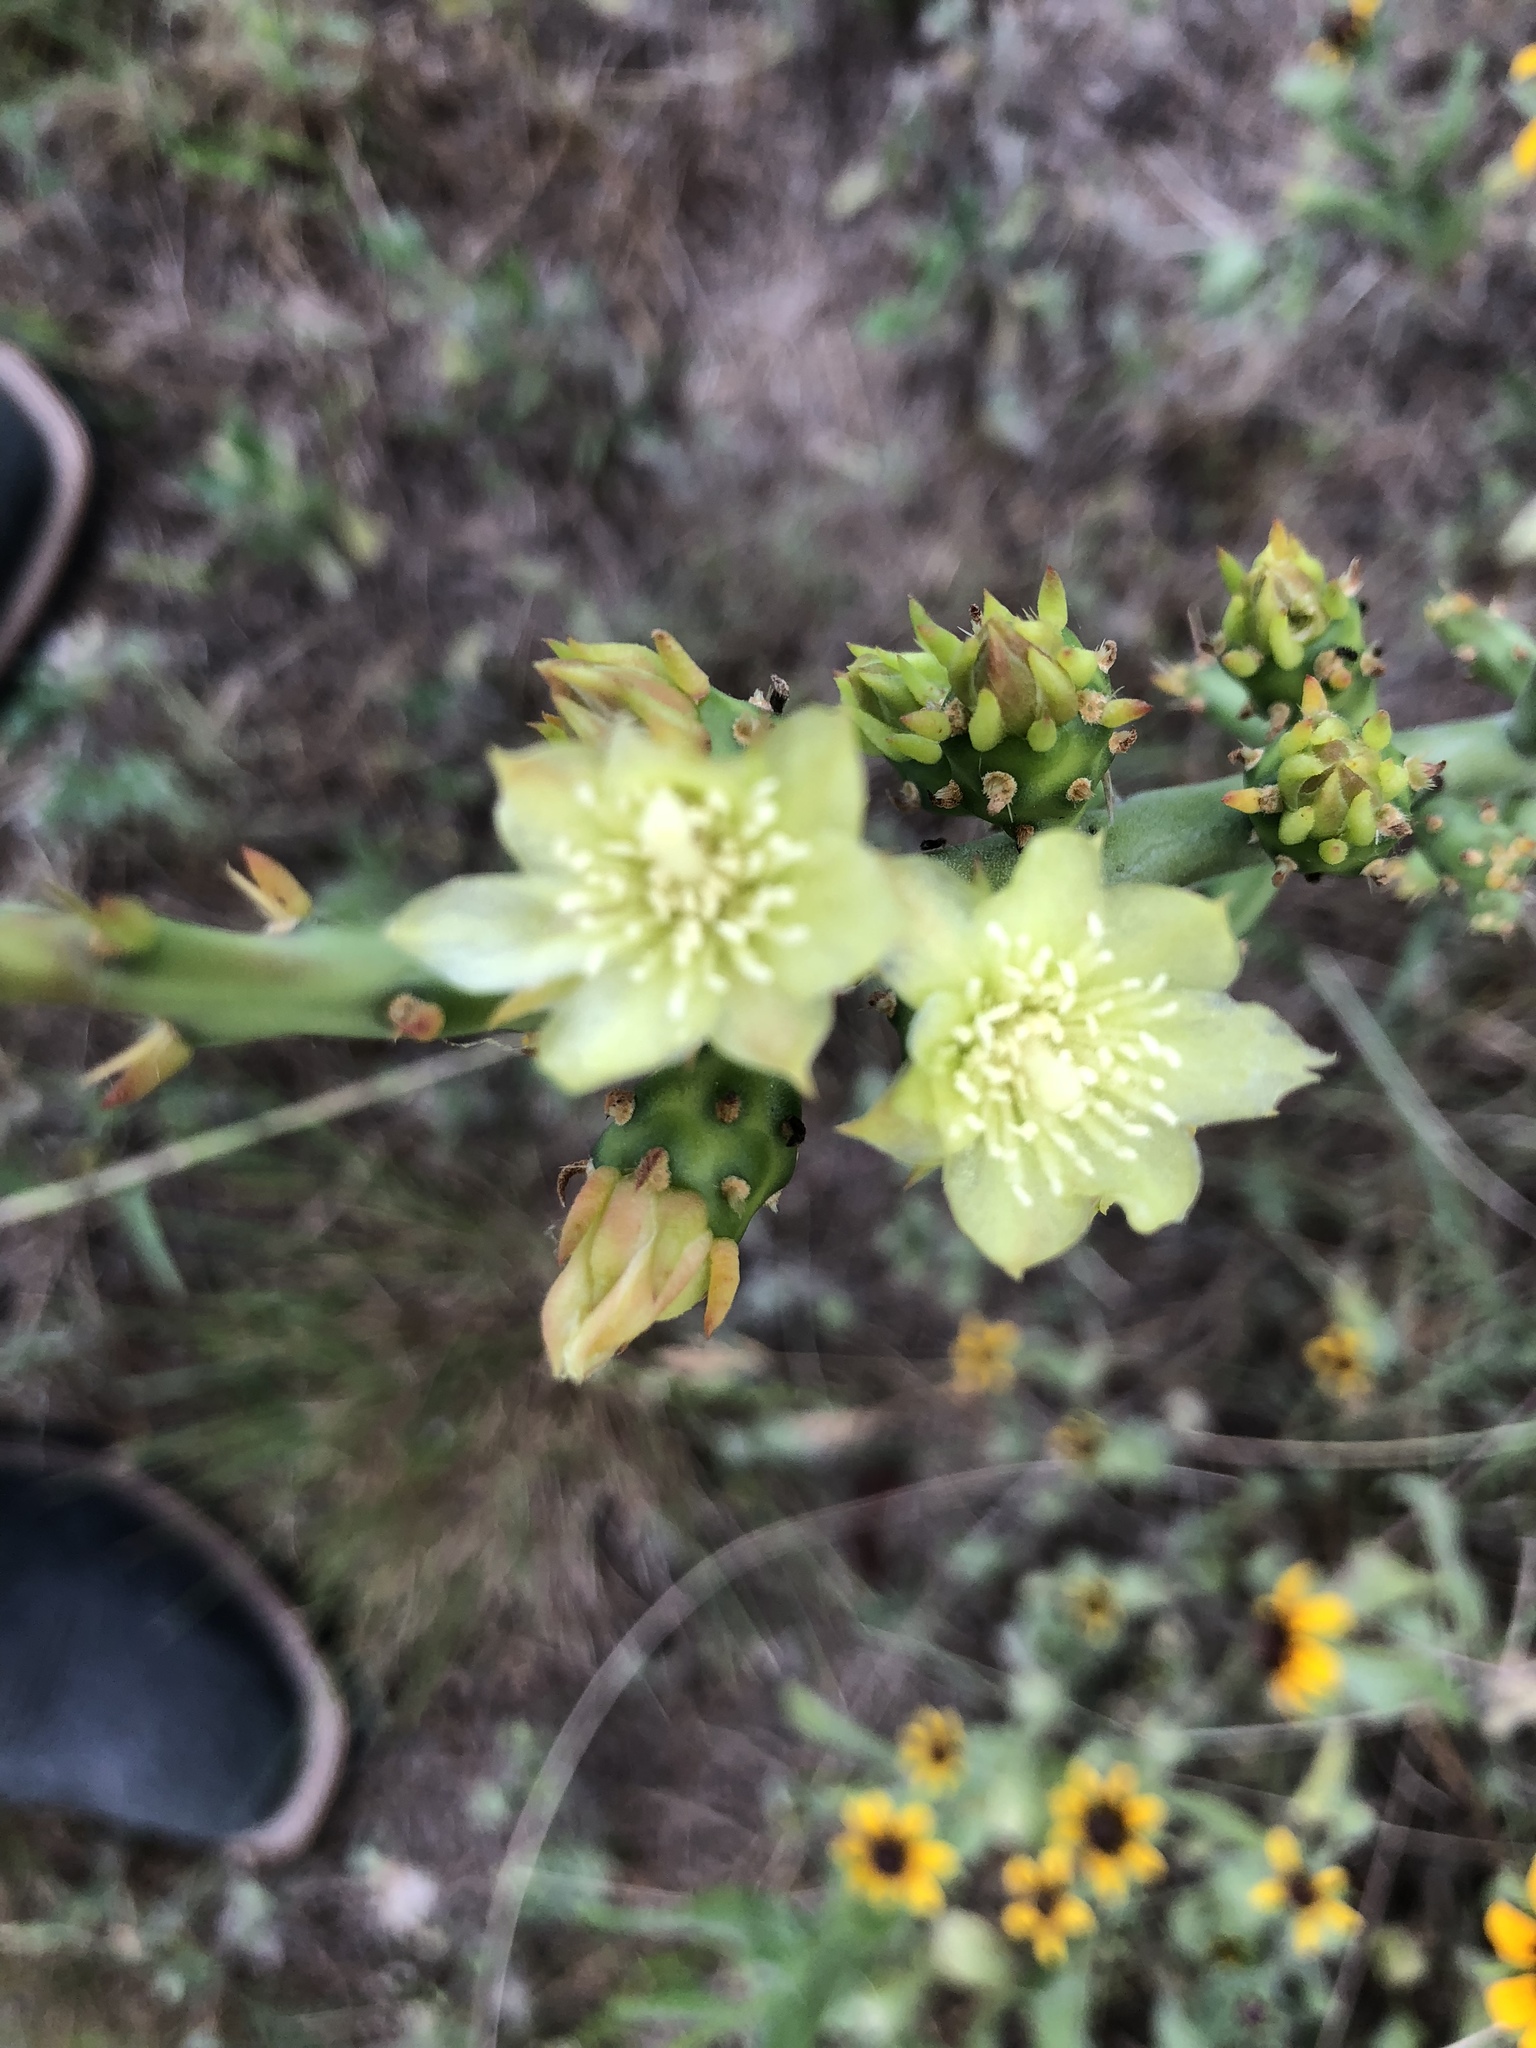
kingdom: Plantae
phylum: Tracheophyta
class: Magnoliopsida
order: Caryophyllales
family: Cactaceae
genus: Cylindropuntia
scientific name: Cylindropuntia leptocaulis
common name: Christmas cactus
